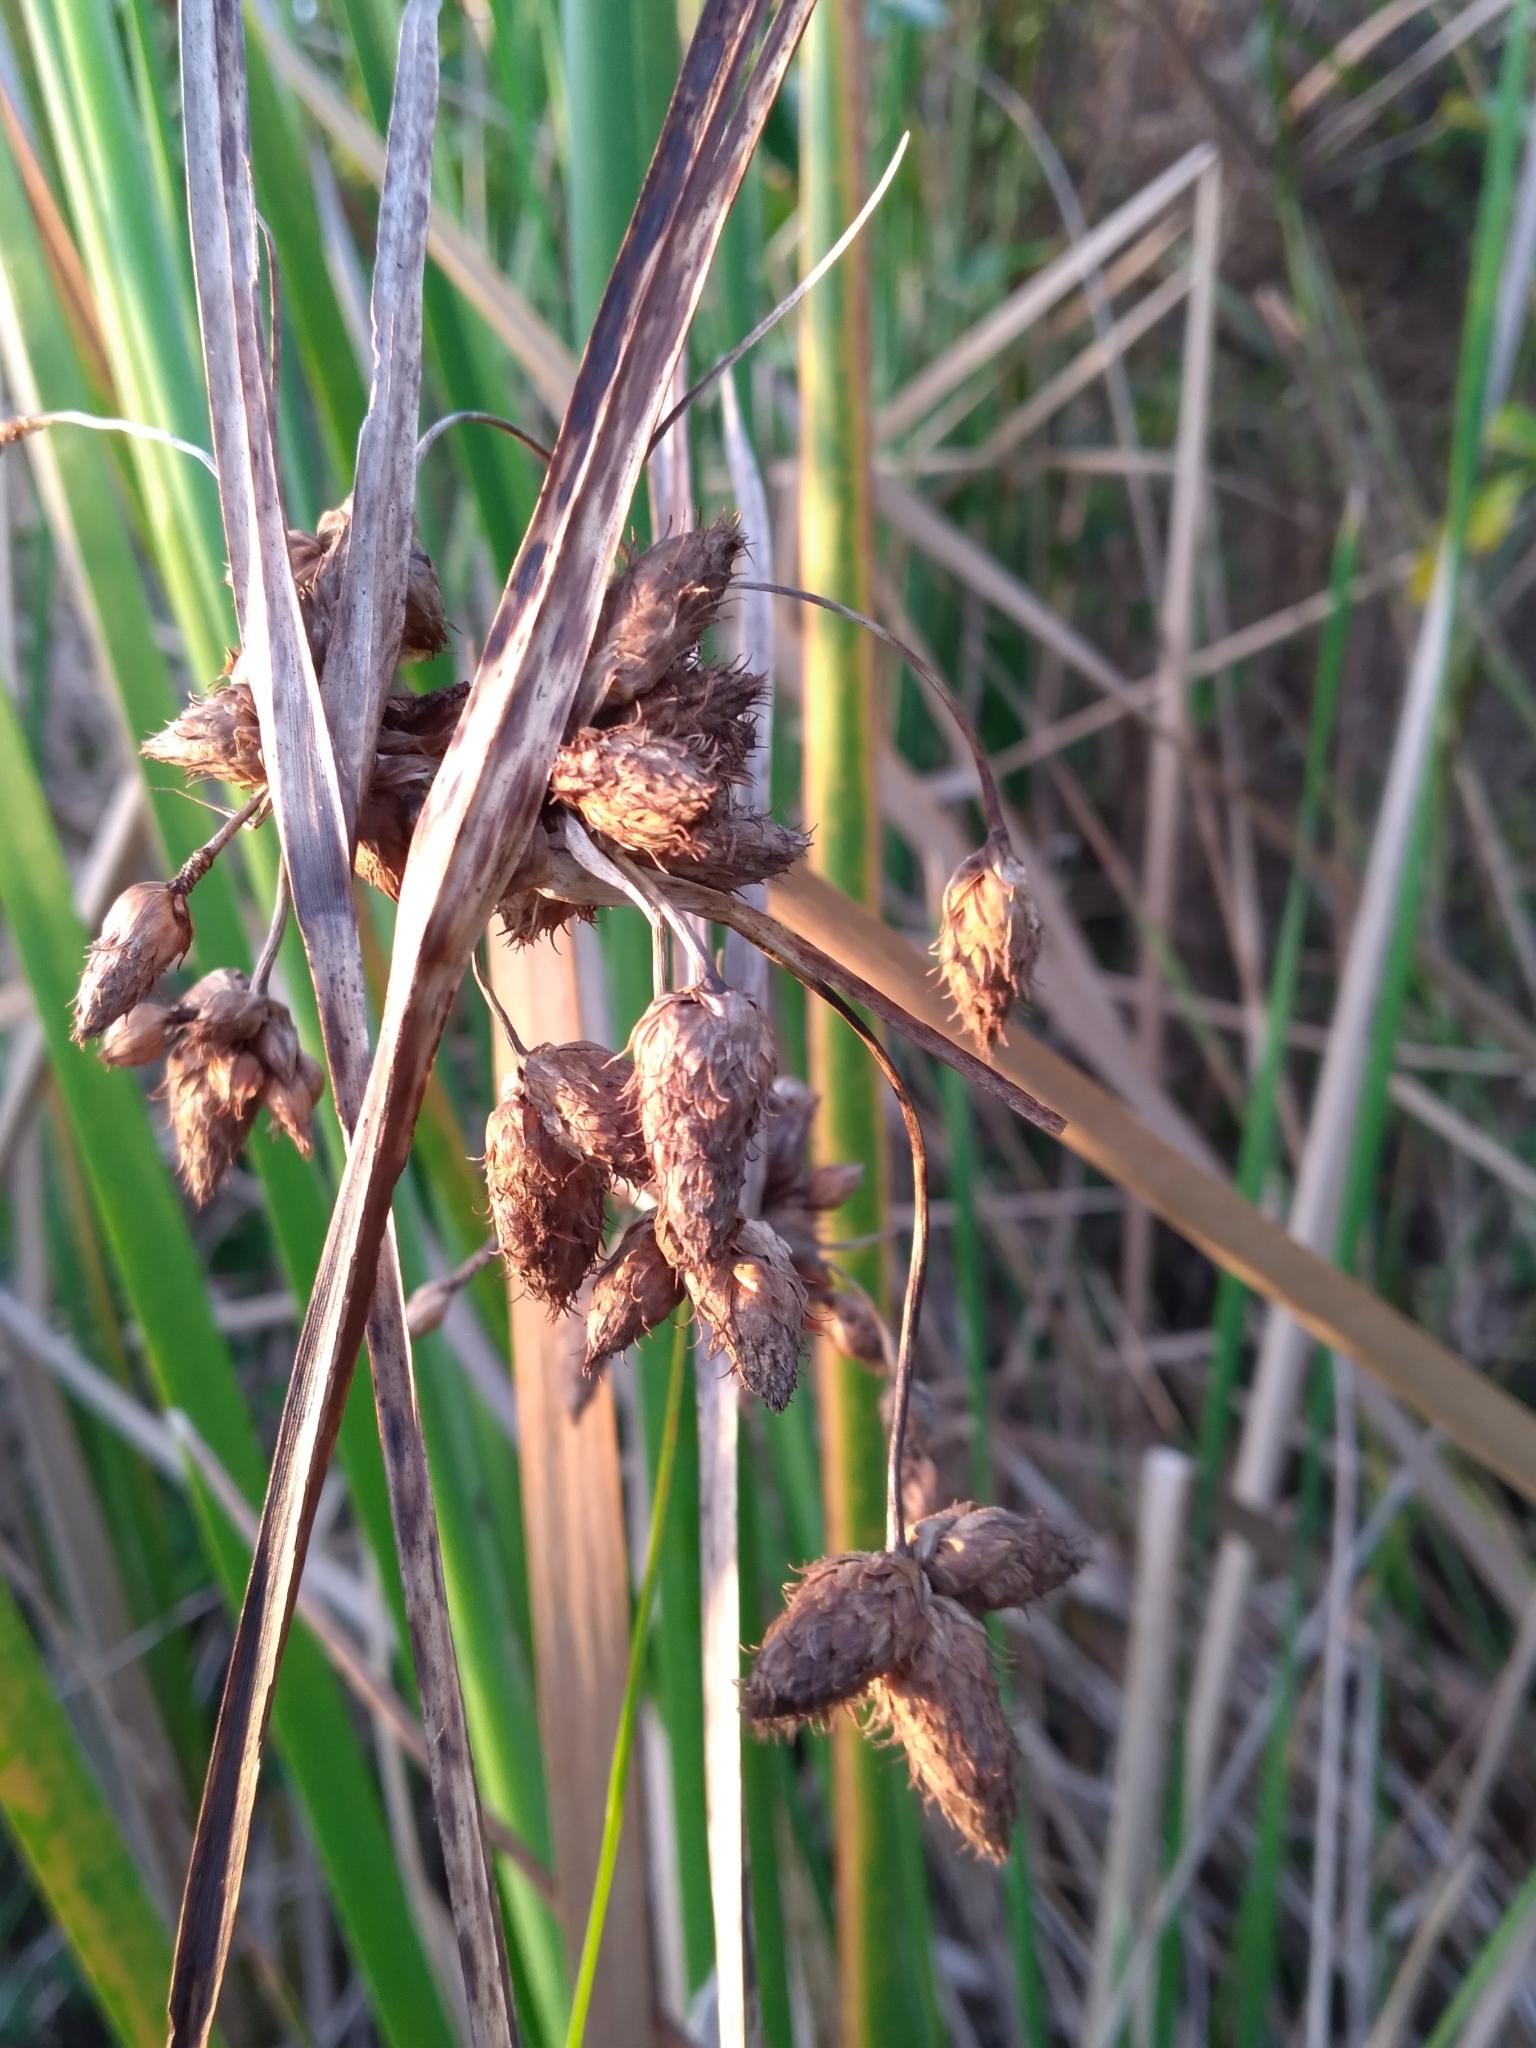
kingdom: Plantae
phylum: Tracheophyta
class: Liliopsida
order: Poales
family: Cyperaceae
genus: Bolboschoenus
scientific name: Bolboschoenus robustus
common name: Seacoast bulrush
